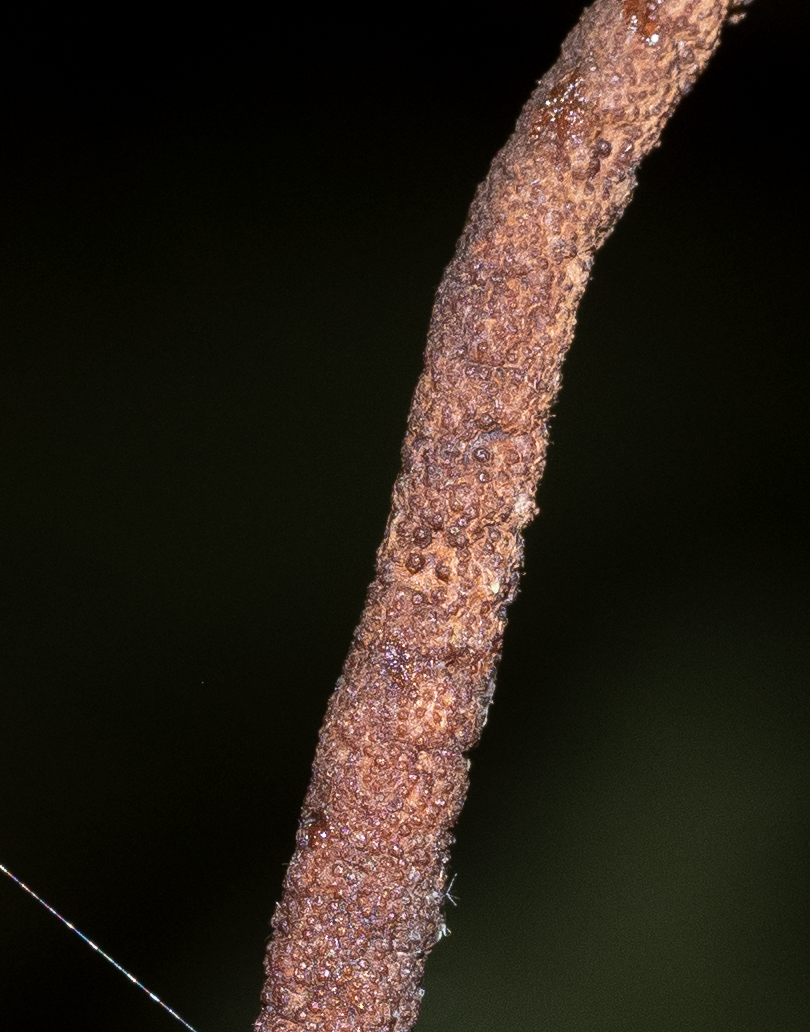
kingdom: Fungi
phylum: Ascomycota
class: Sordariomycetes
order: Hypocreales
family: Ophiocordycipitaceae
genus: Ophiocordyceps
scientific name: Ophiocordyceps
